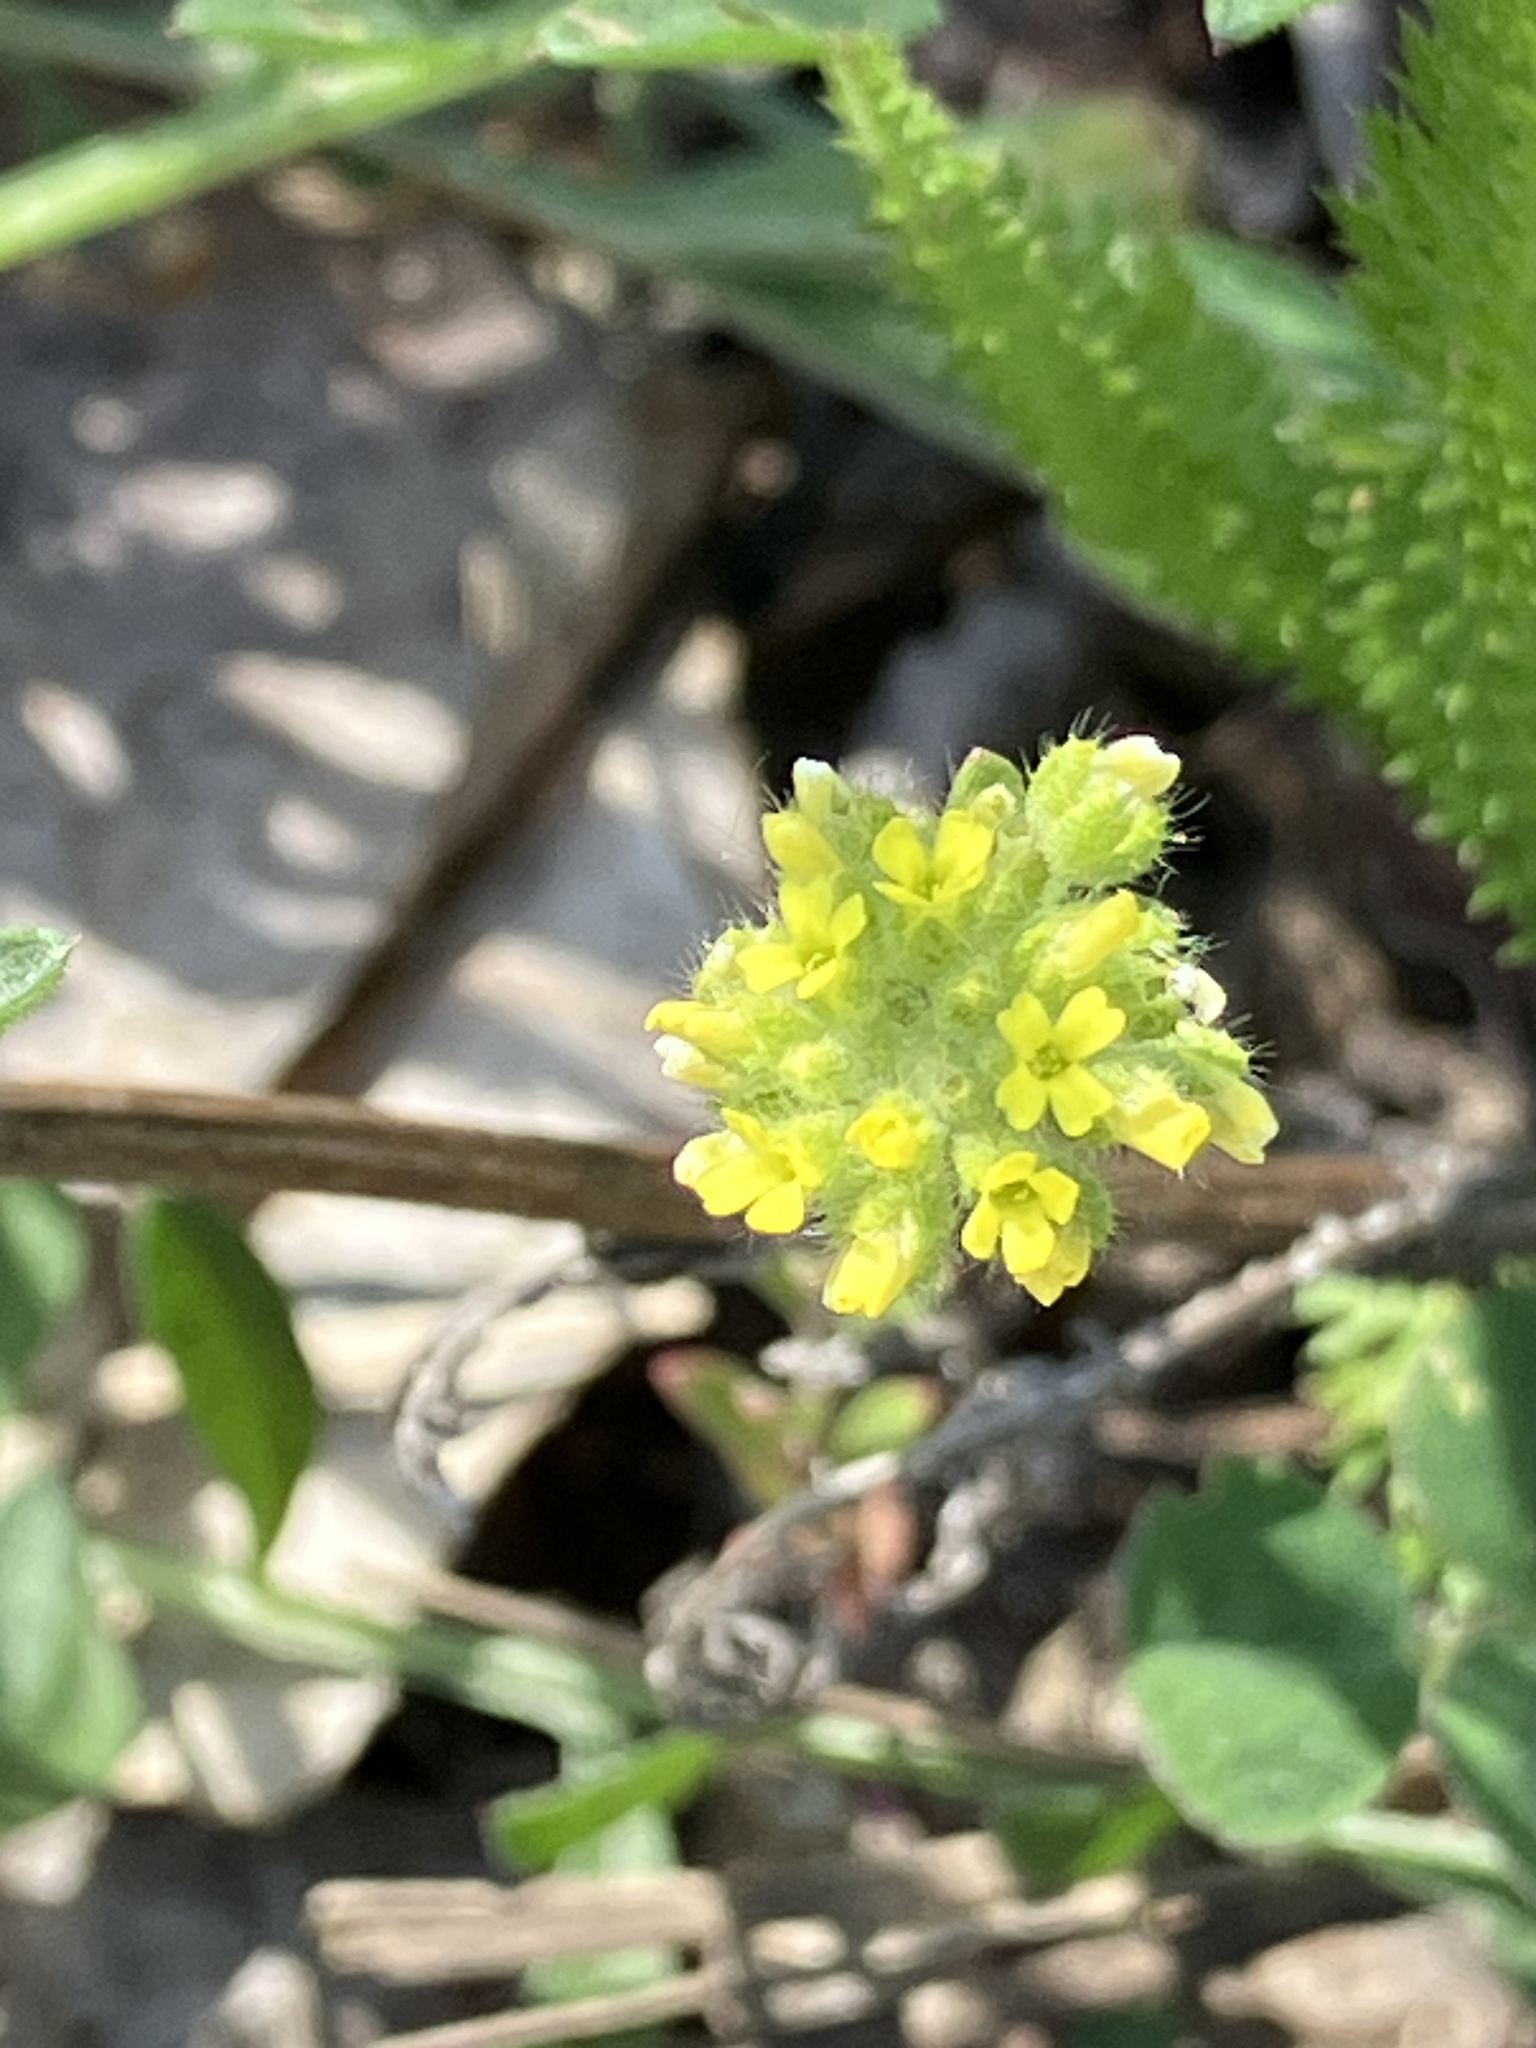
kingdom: Plantae
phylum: Tracheophyta
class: Magnoliopsida
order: Brassicales
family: Brassicaceae
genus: Alyssum
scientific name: Alyssum alyssoides
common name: Small alison
